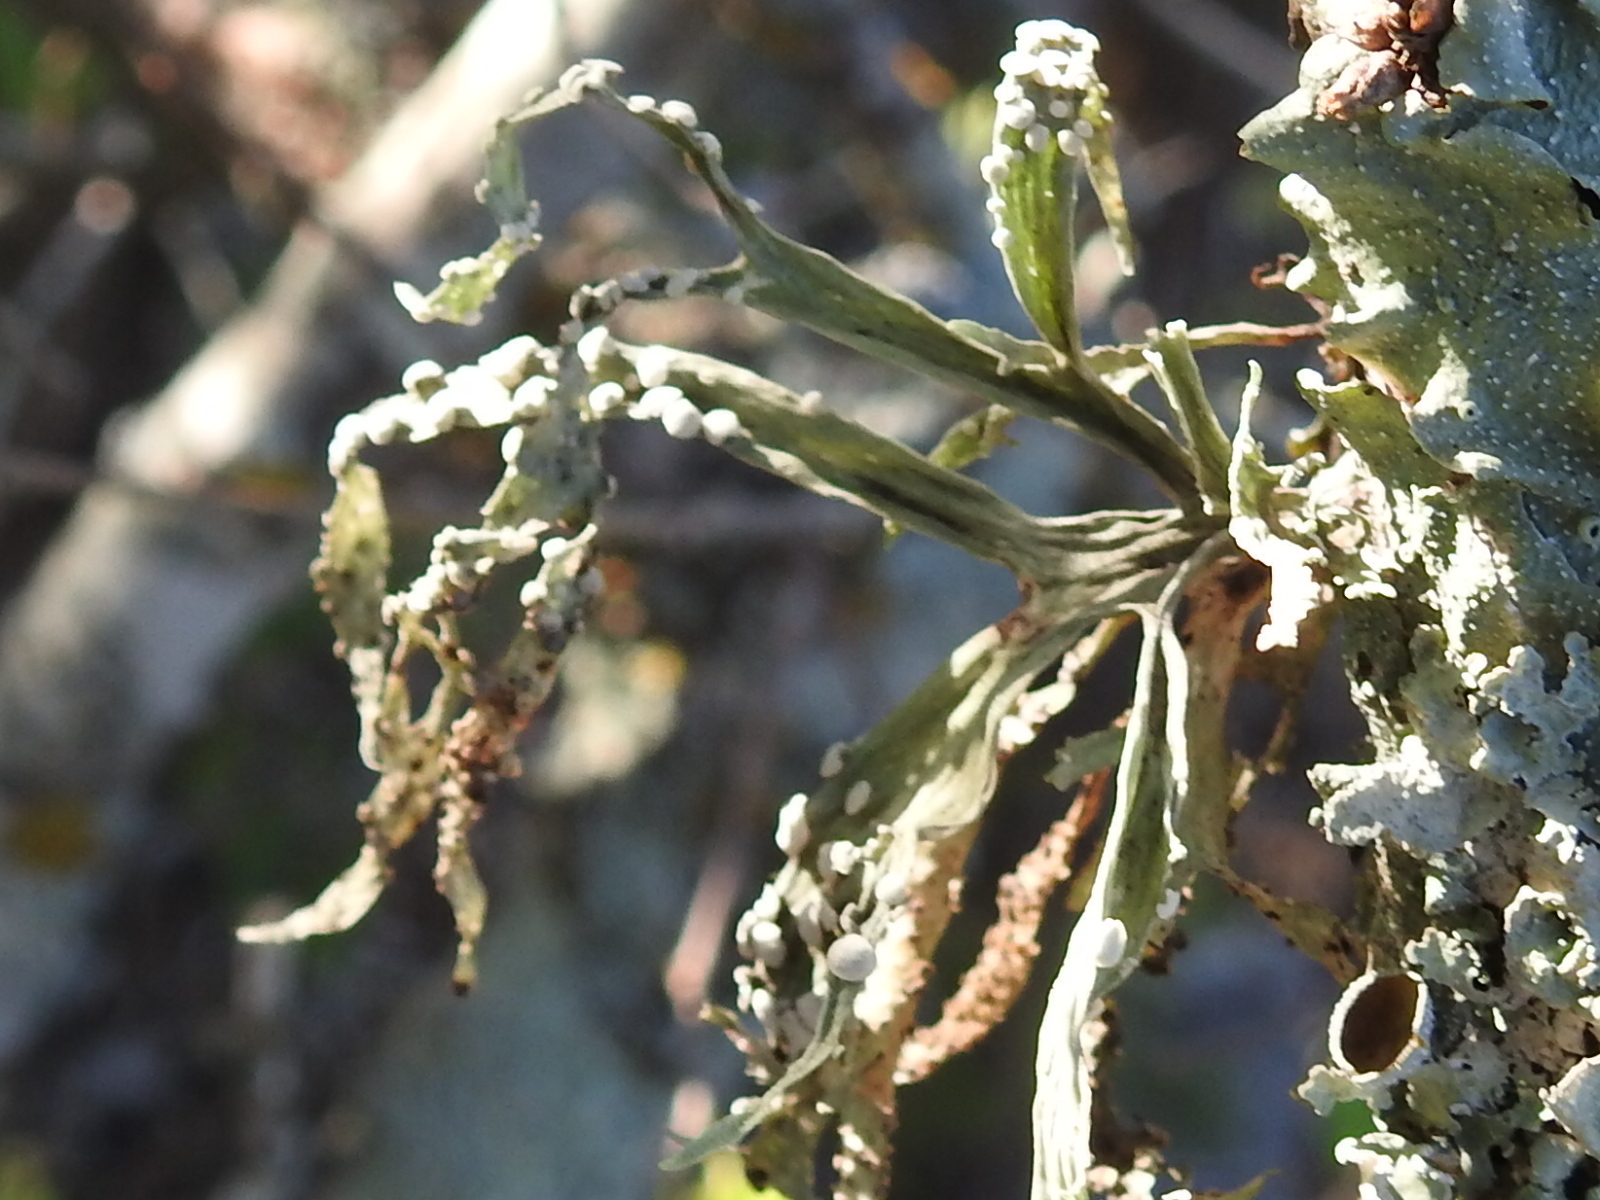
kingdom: Fungi
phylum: Ascomycota
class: Lecanoromycetes
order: Lecanorales
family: Ramalinaceae
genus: Ramalina
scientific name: Ramalina celastri
